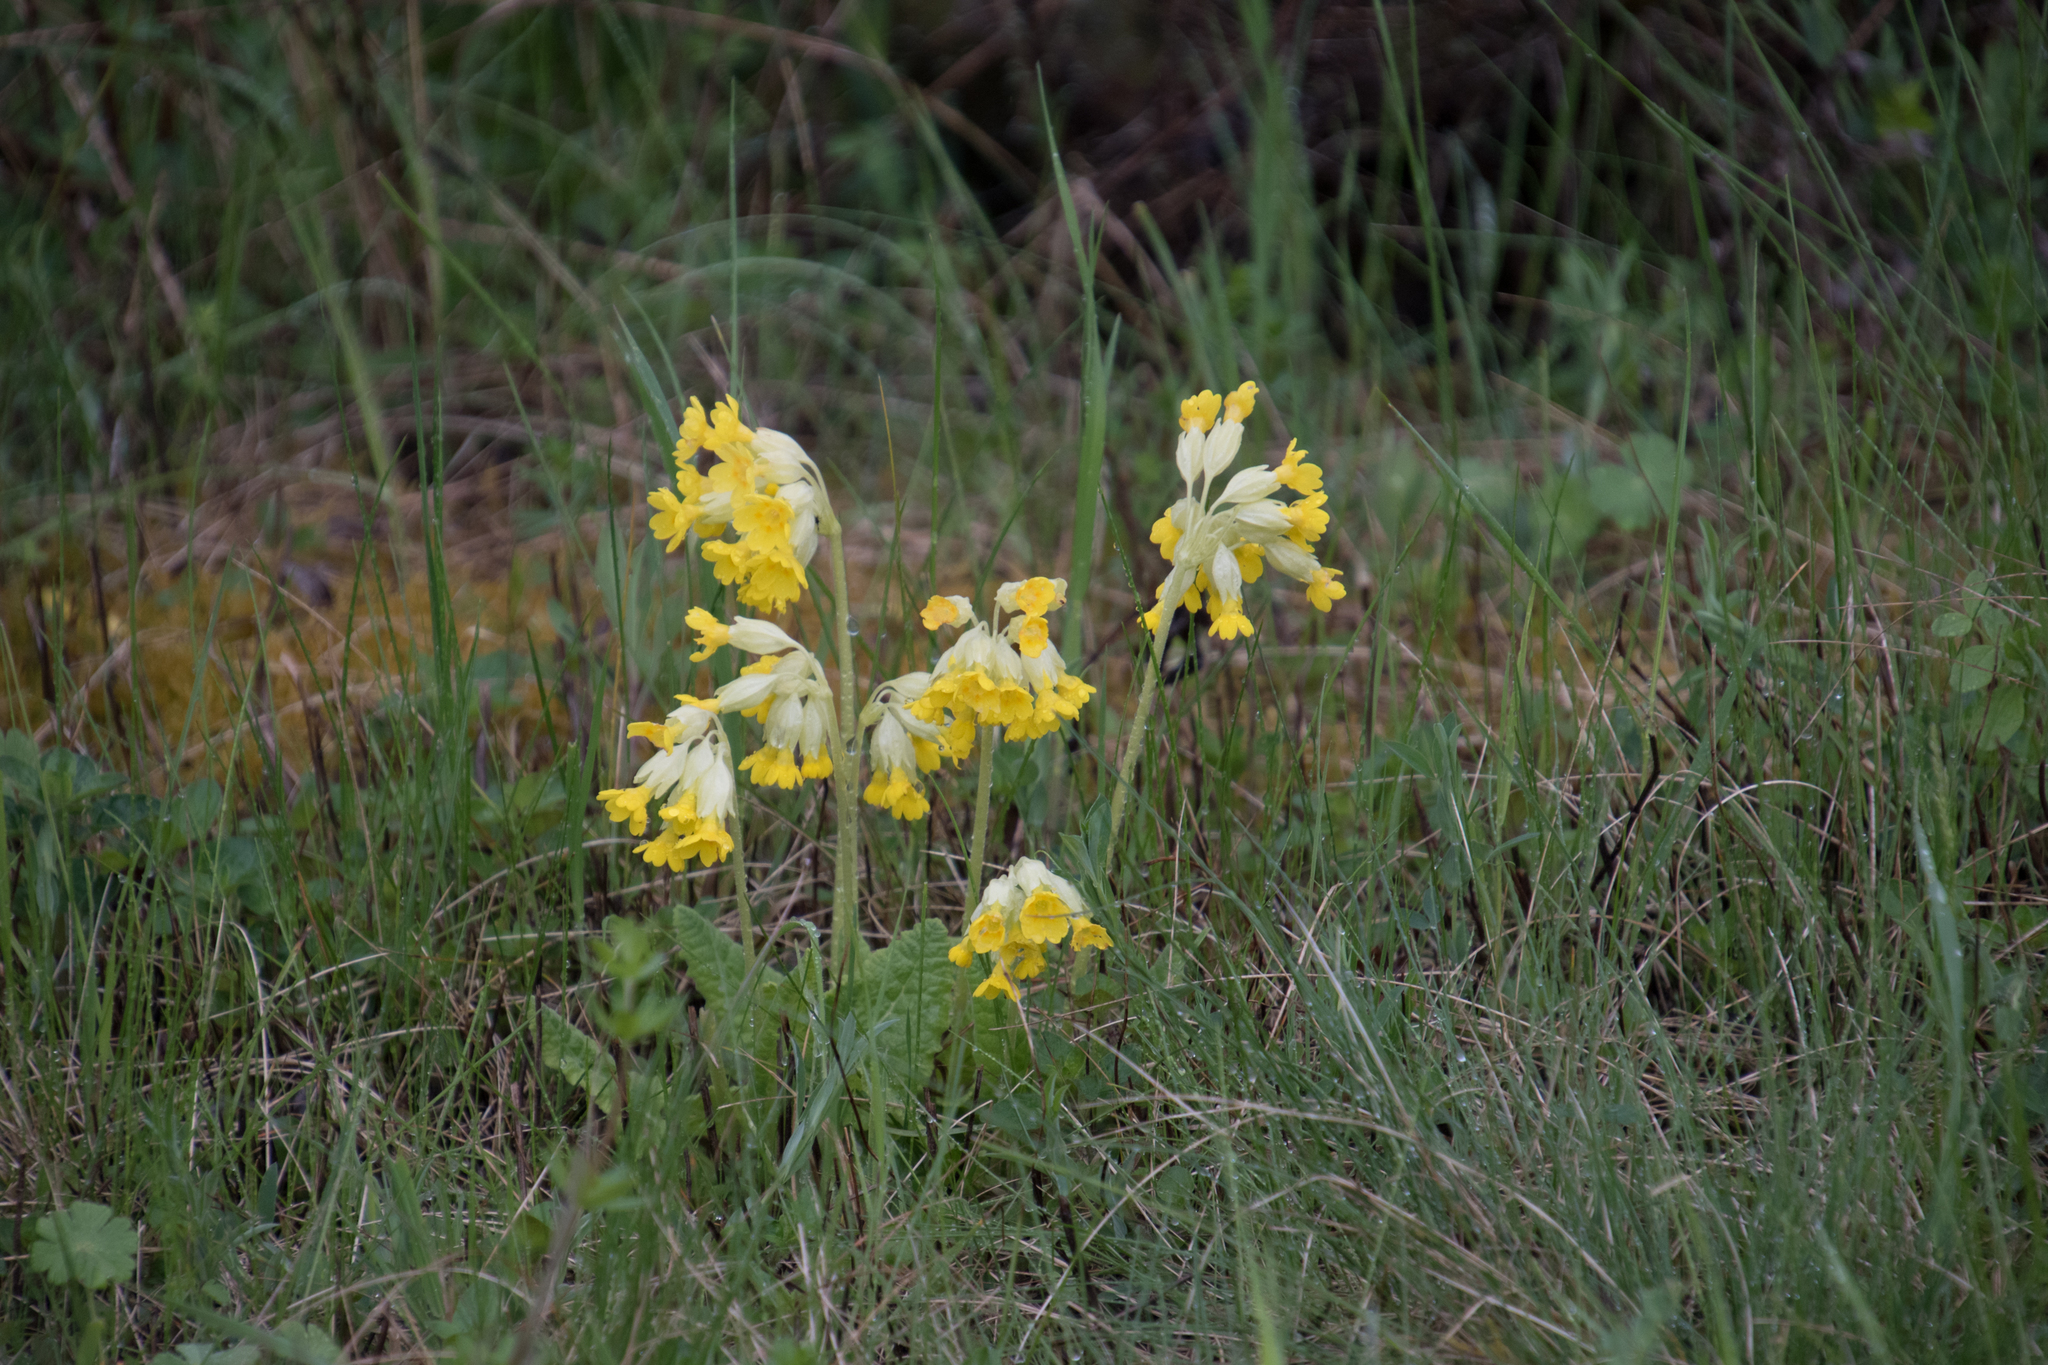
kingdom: Plantae
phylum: Tracheophyta
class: Magnoliopsida
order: Ericales
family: Primulaceae
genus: Primula
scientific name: Primula veris
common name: Cowslip
